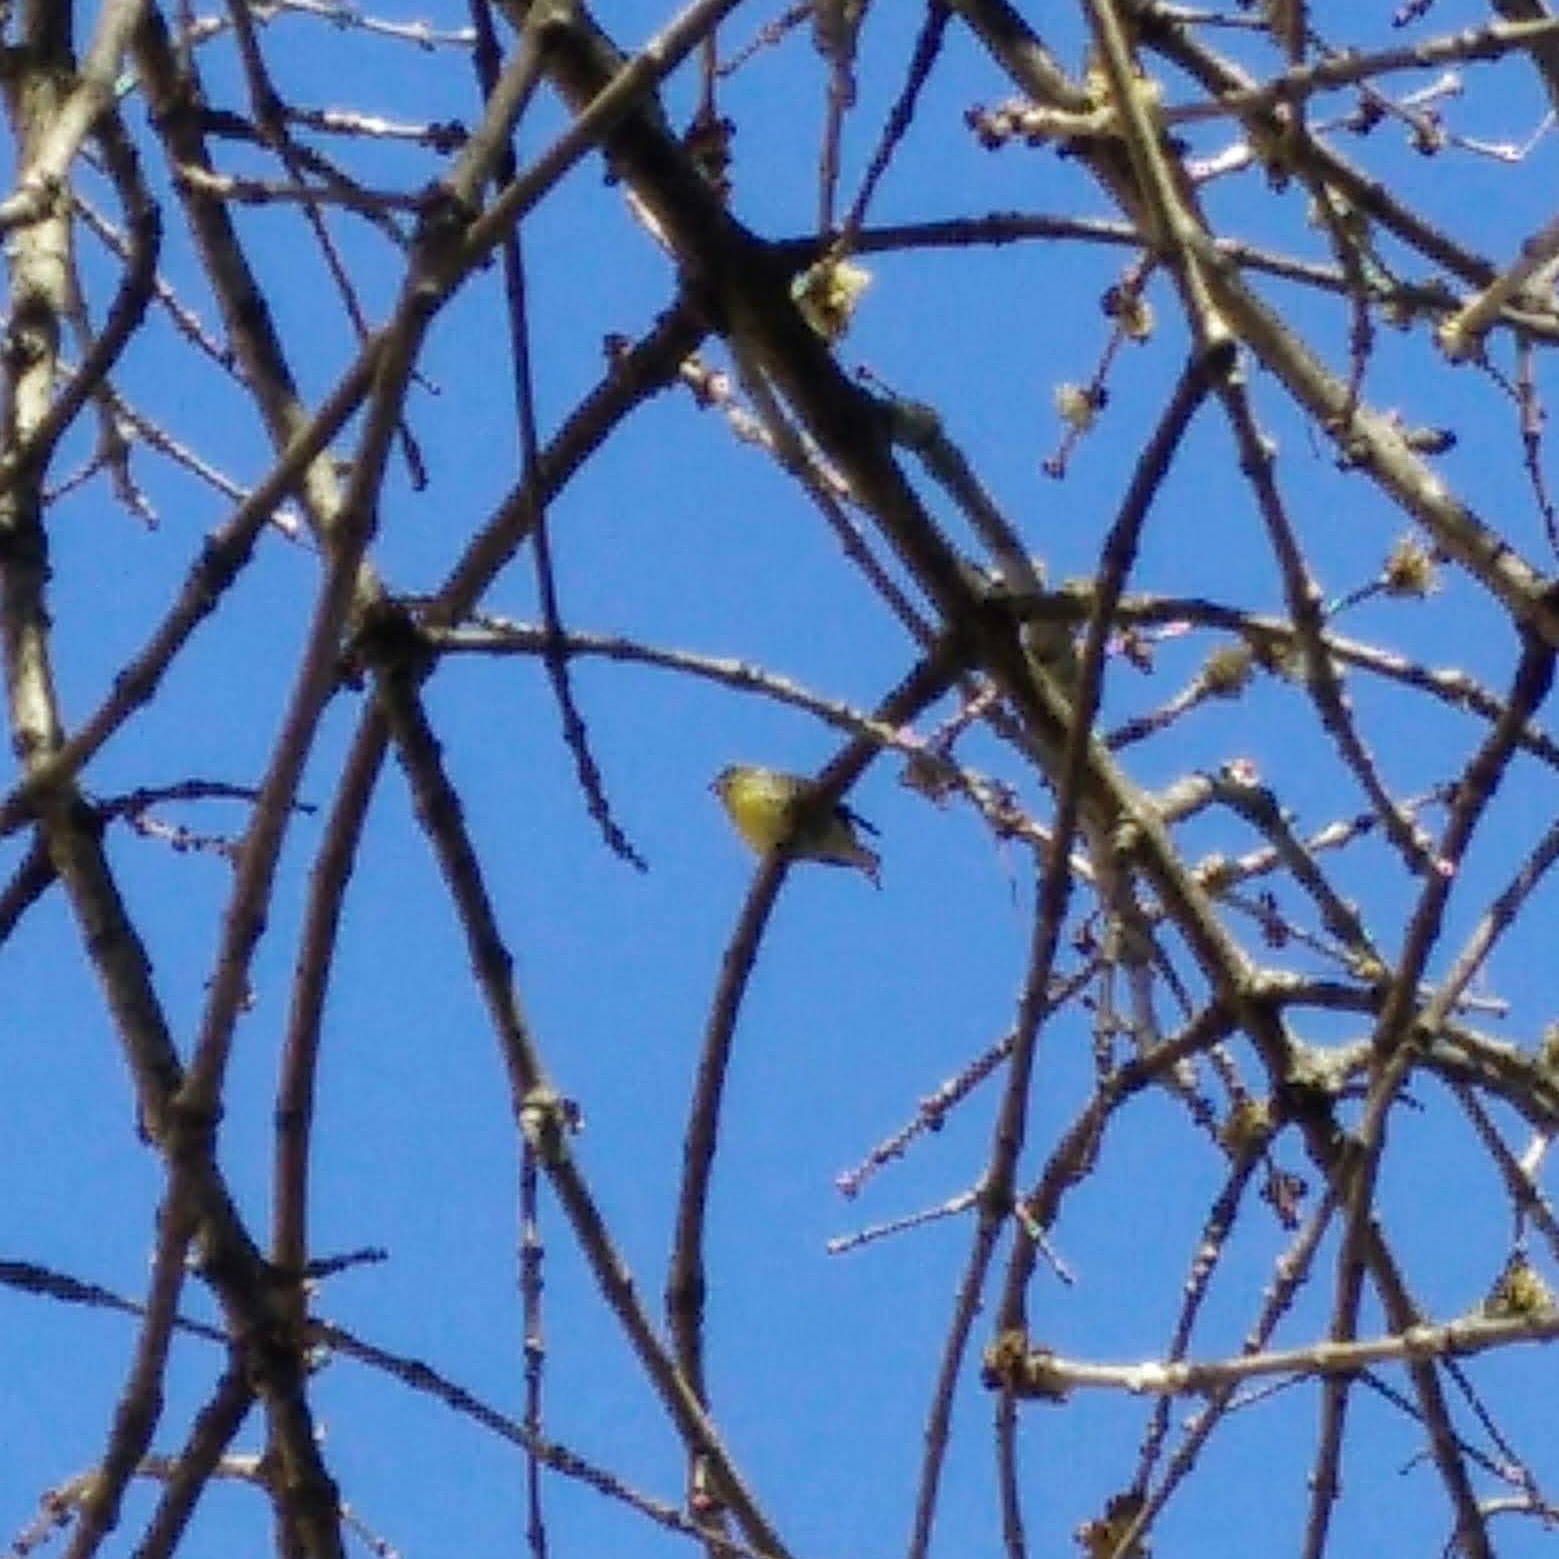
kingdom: Animalia
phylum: Chordata
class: Aves
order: Passeriformes
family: Fringillidae
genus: Serinus
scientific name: Serinus serinus
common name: European serin
